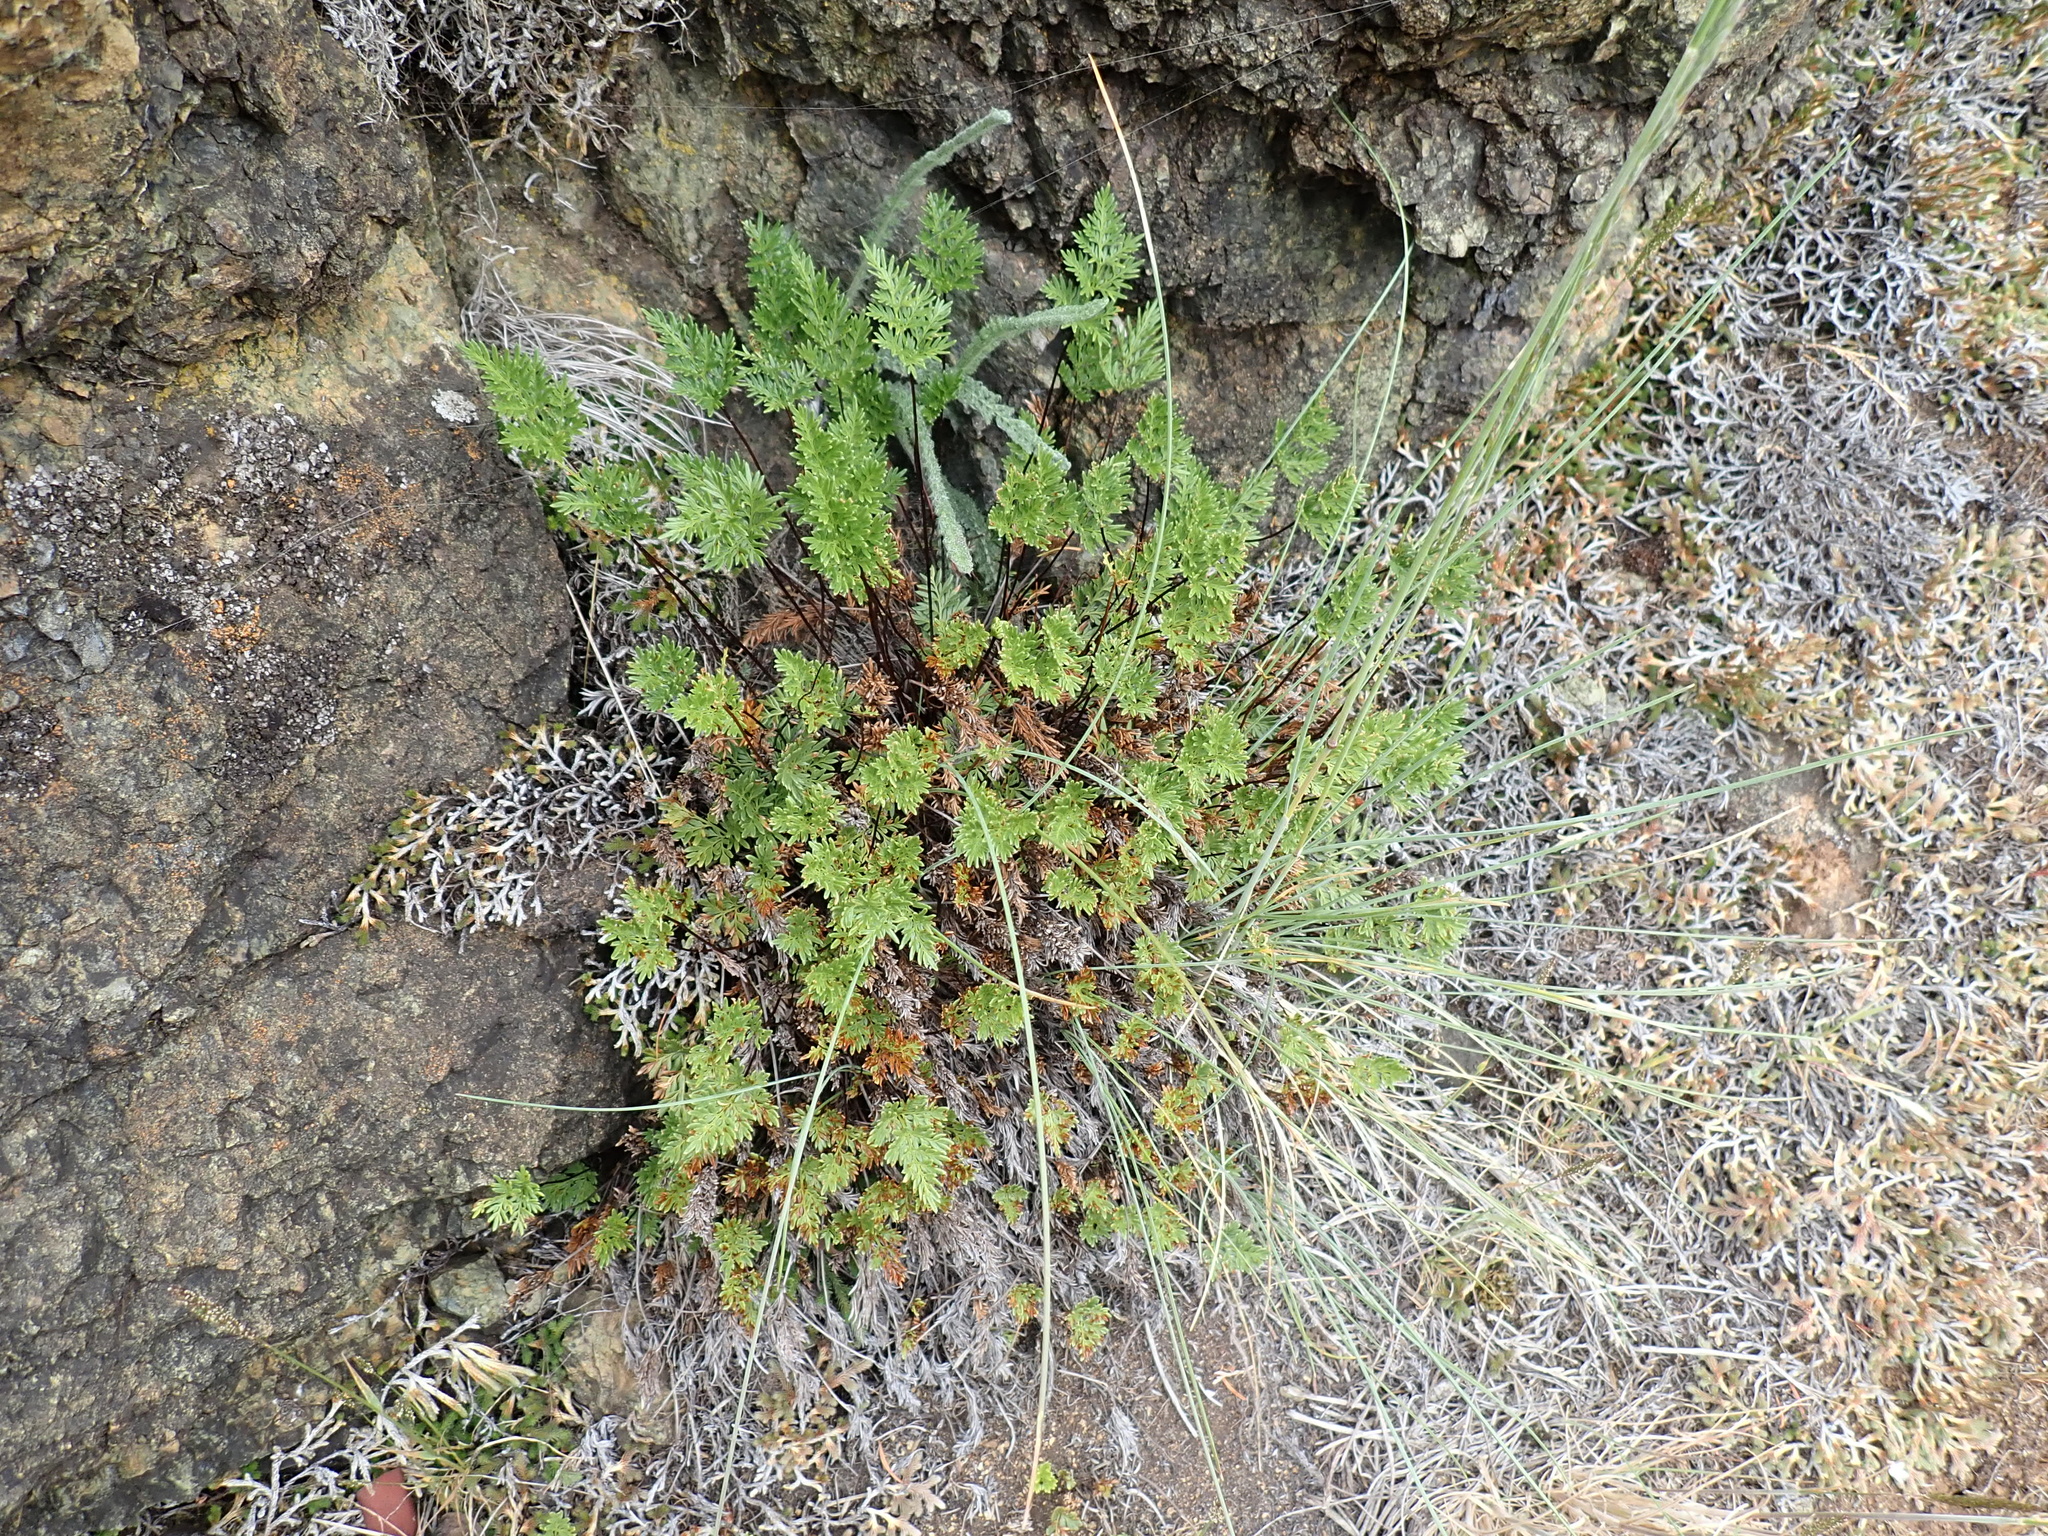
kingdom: Plantae
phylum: Tracheophyta
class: Polypodiopsida
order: Polypodiales
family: Pteridaceae
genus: Aspidotis
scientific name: Aspidotis densa
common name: Indian's dream
